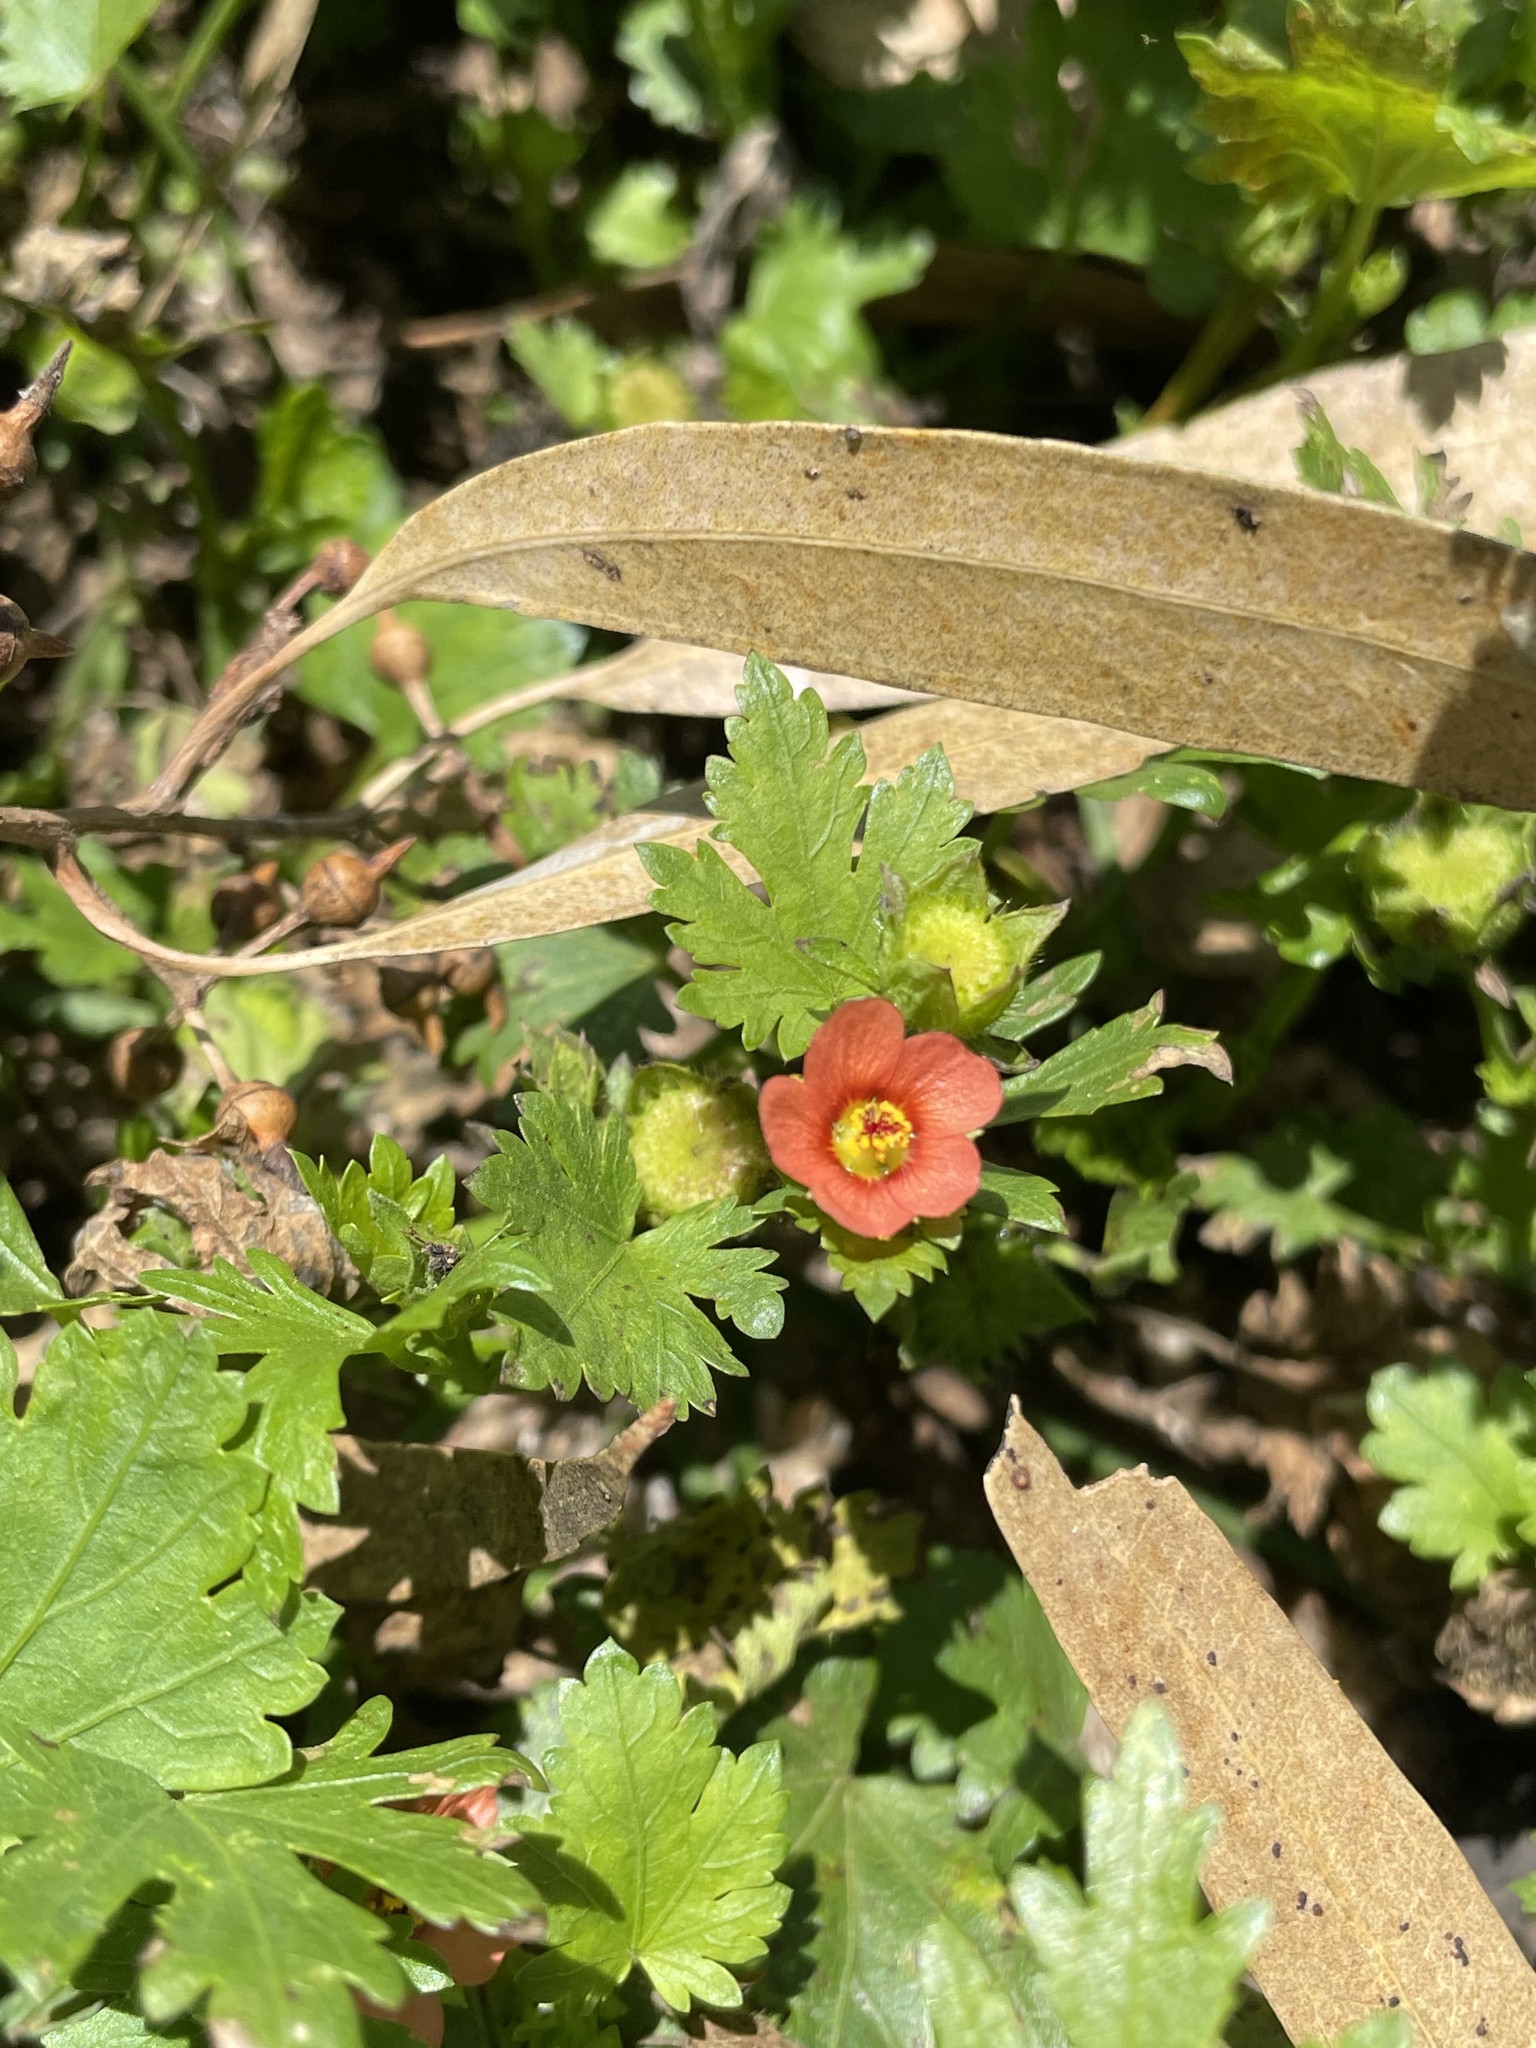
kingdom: Plantae
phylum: Tracheophyta
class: Magnoliopsida
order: Malvales
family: Malvaceae
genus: Modiola
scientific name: Modiola caroliniana
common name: Carolina bristlemallow
